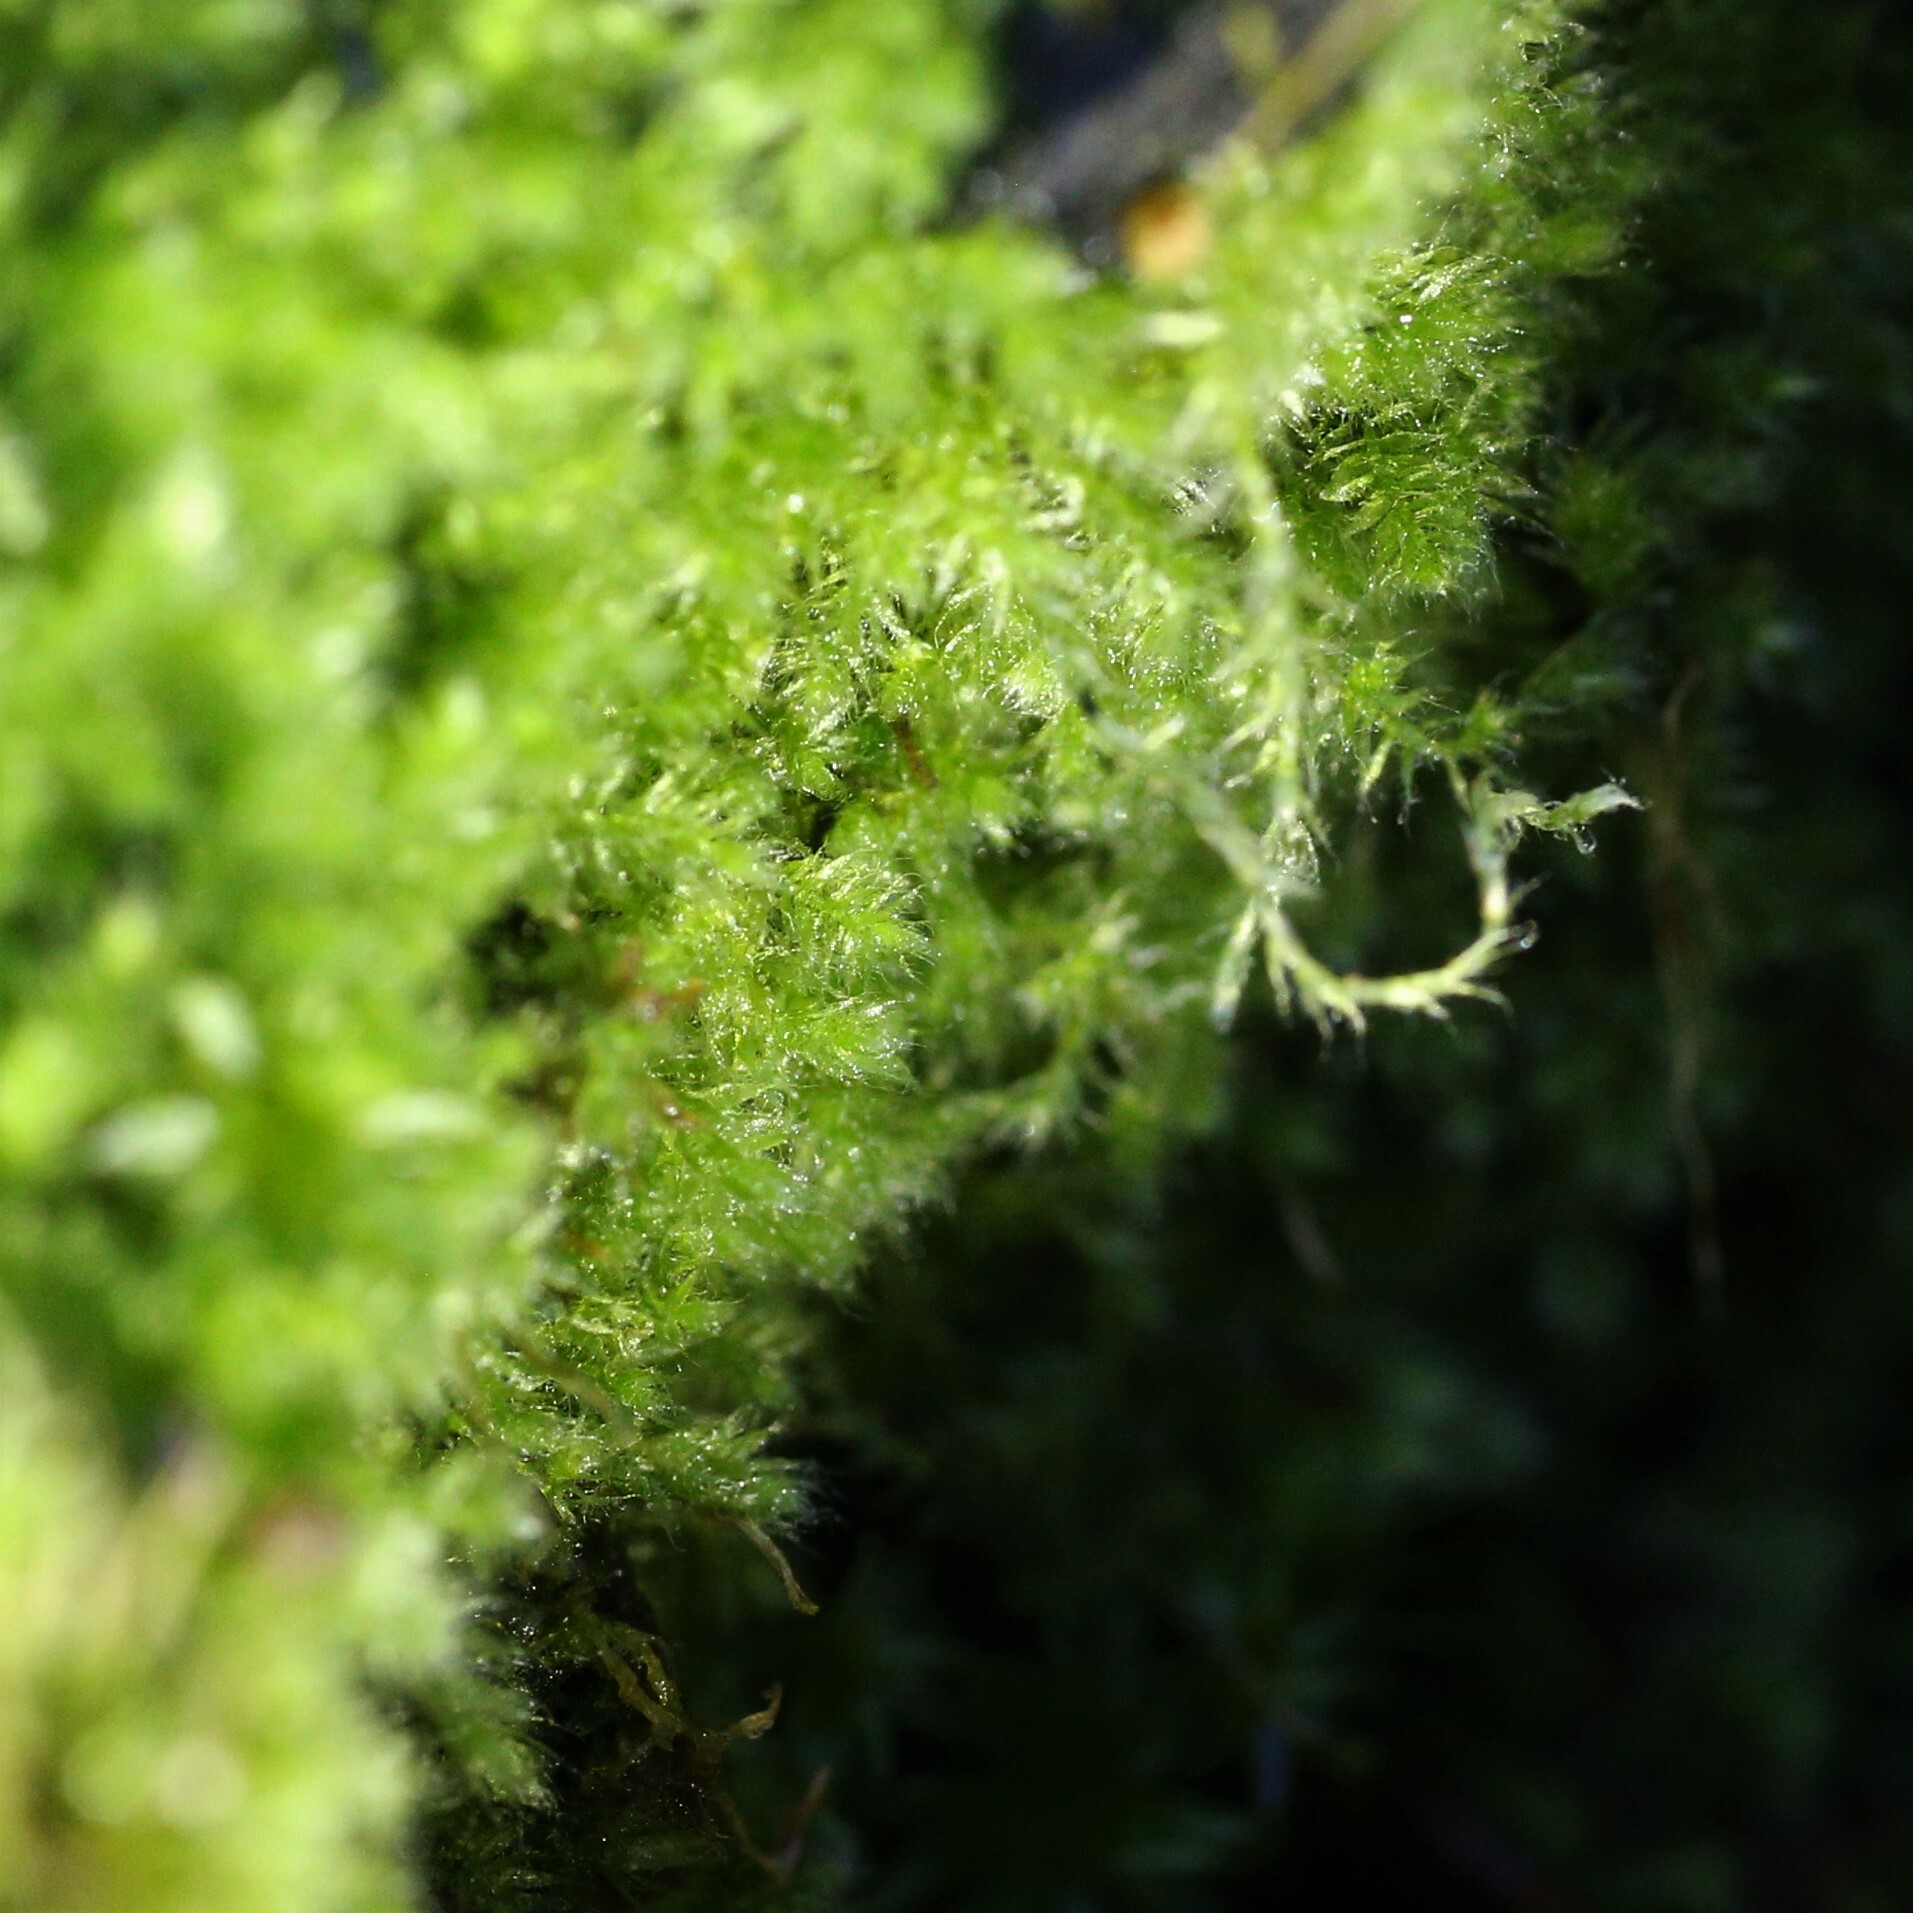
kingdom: Plantae
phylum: Bryophyta
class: Bryopsida
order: Hypnales
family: Fabroniaceae
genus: Fabronia
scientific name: Fabronia hampeana
